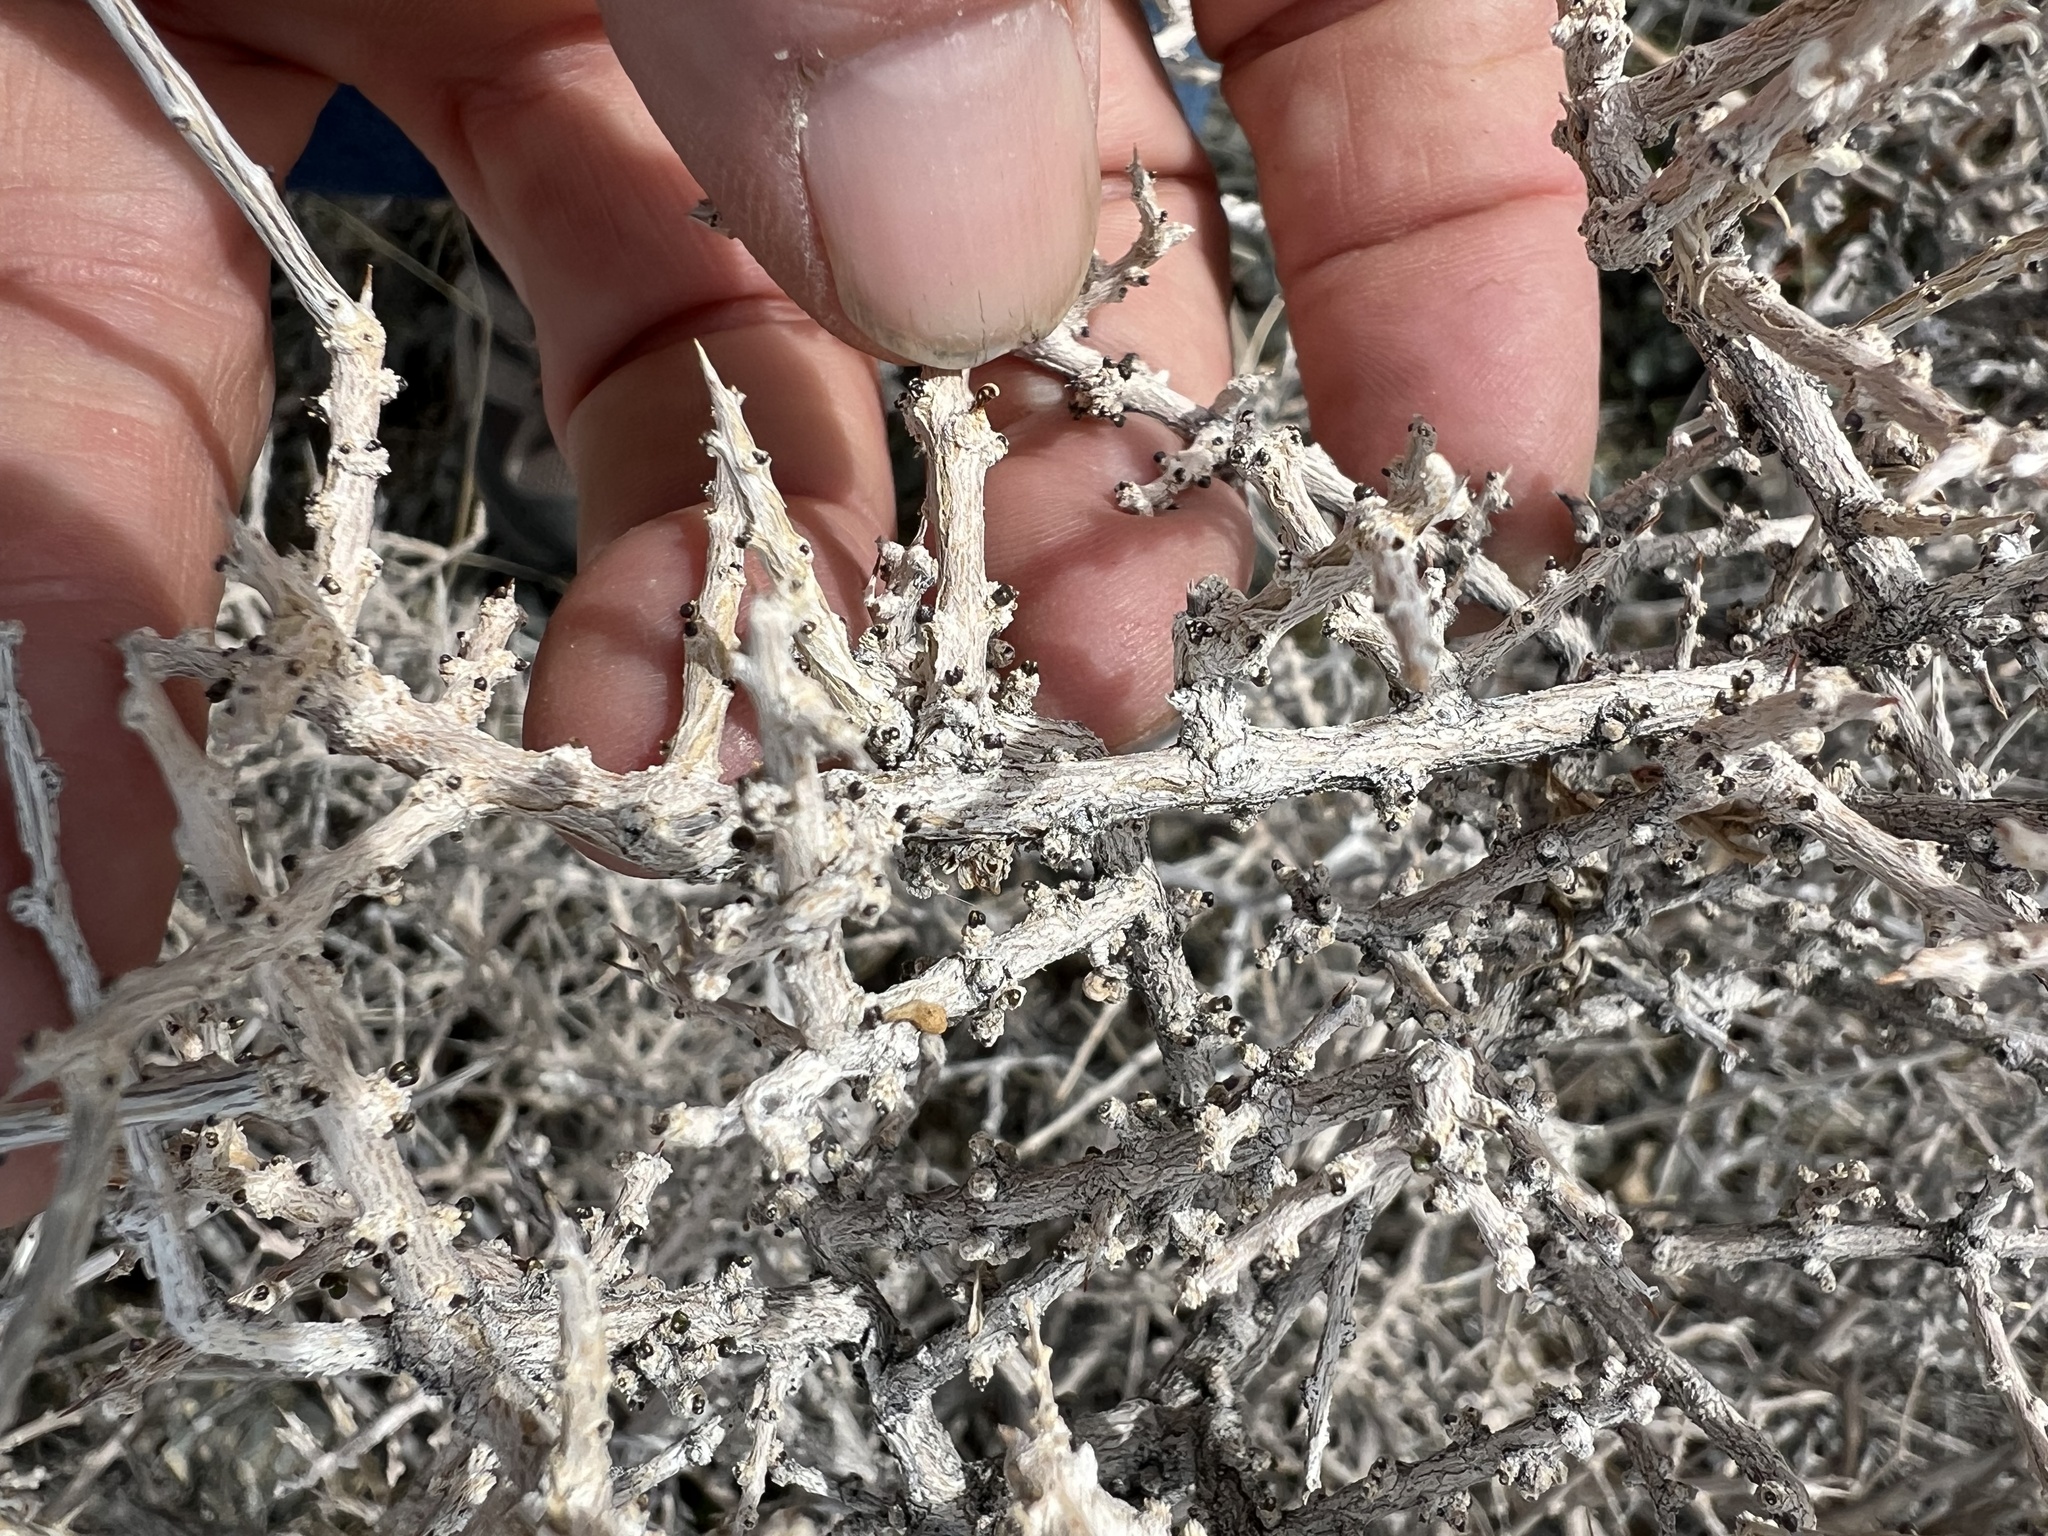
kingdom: Plantae
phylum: Tracheophyta
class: Magnoliopsida
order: Solanales
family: Solanaceae
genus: Lycium
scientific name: Lycium andersonii
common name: Water-jacket
